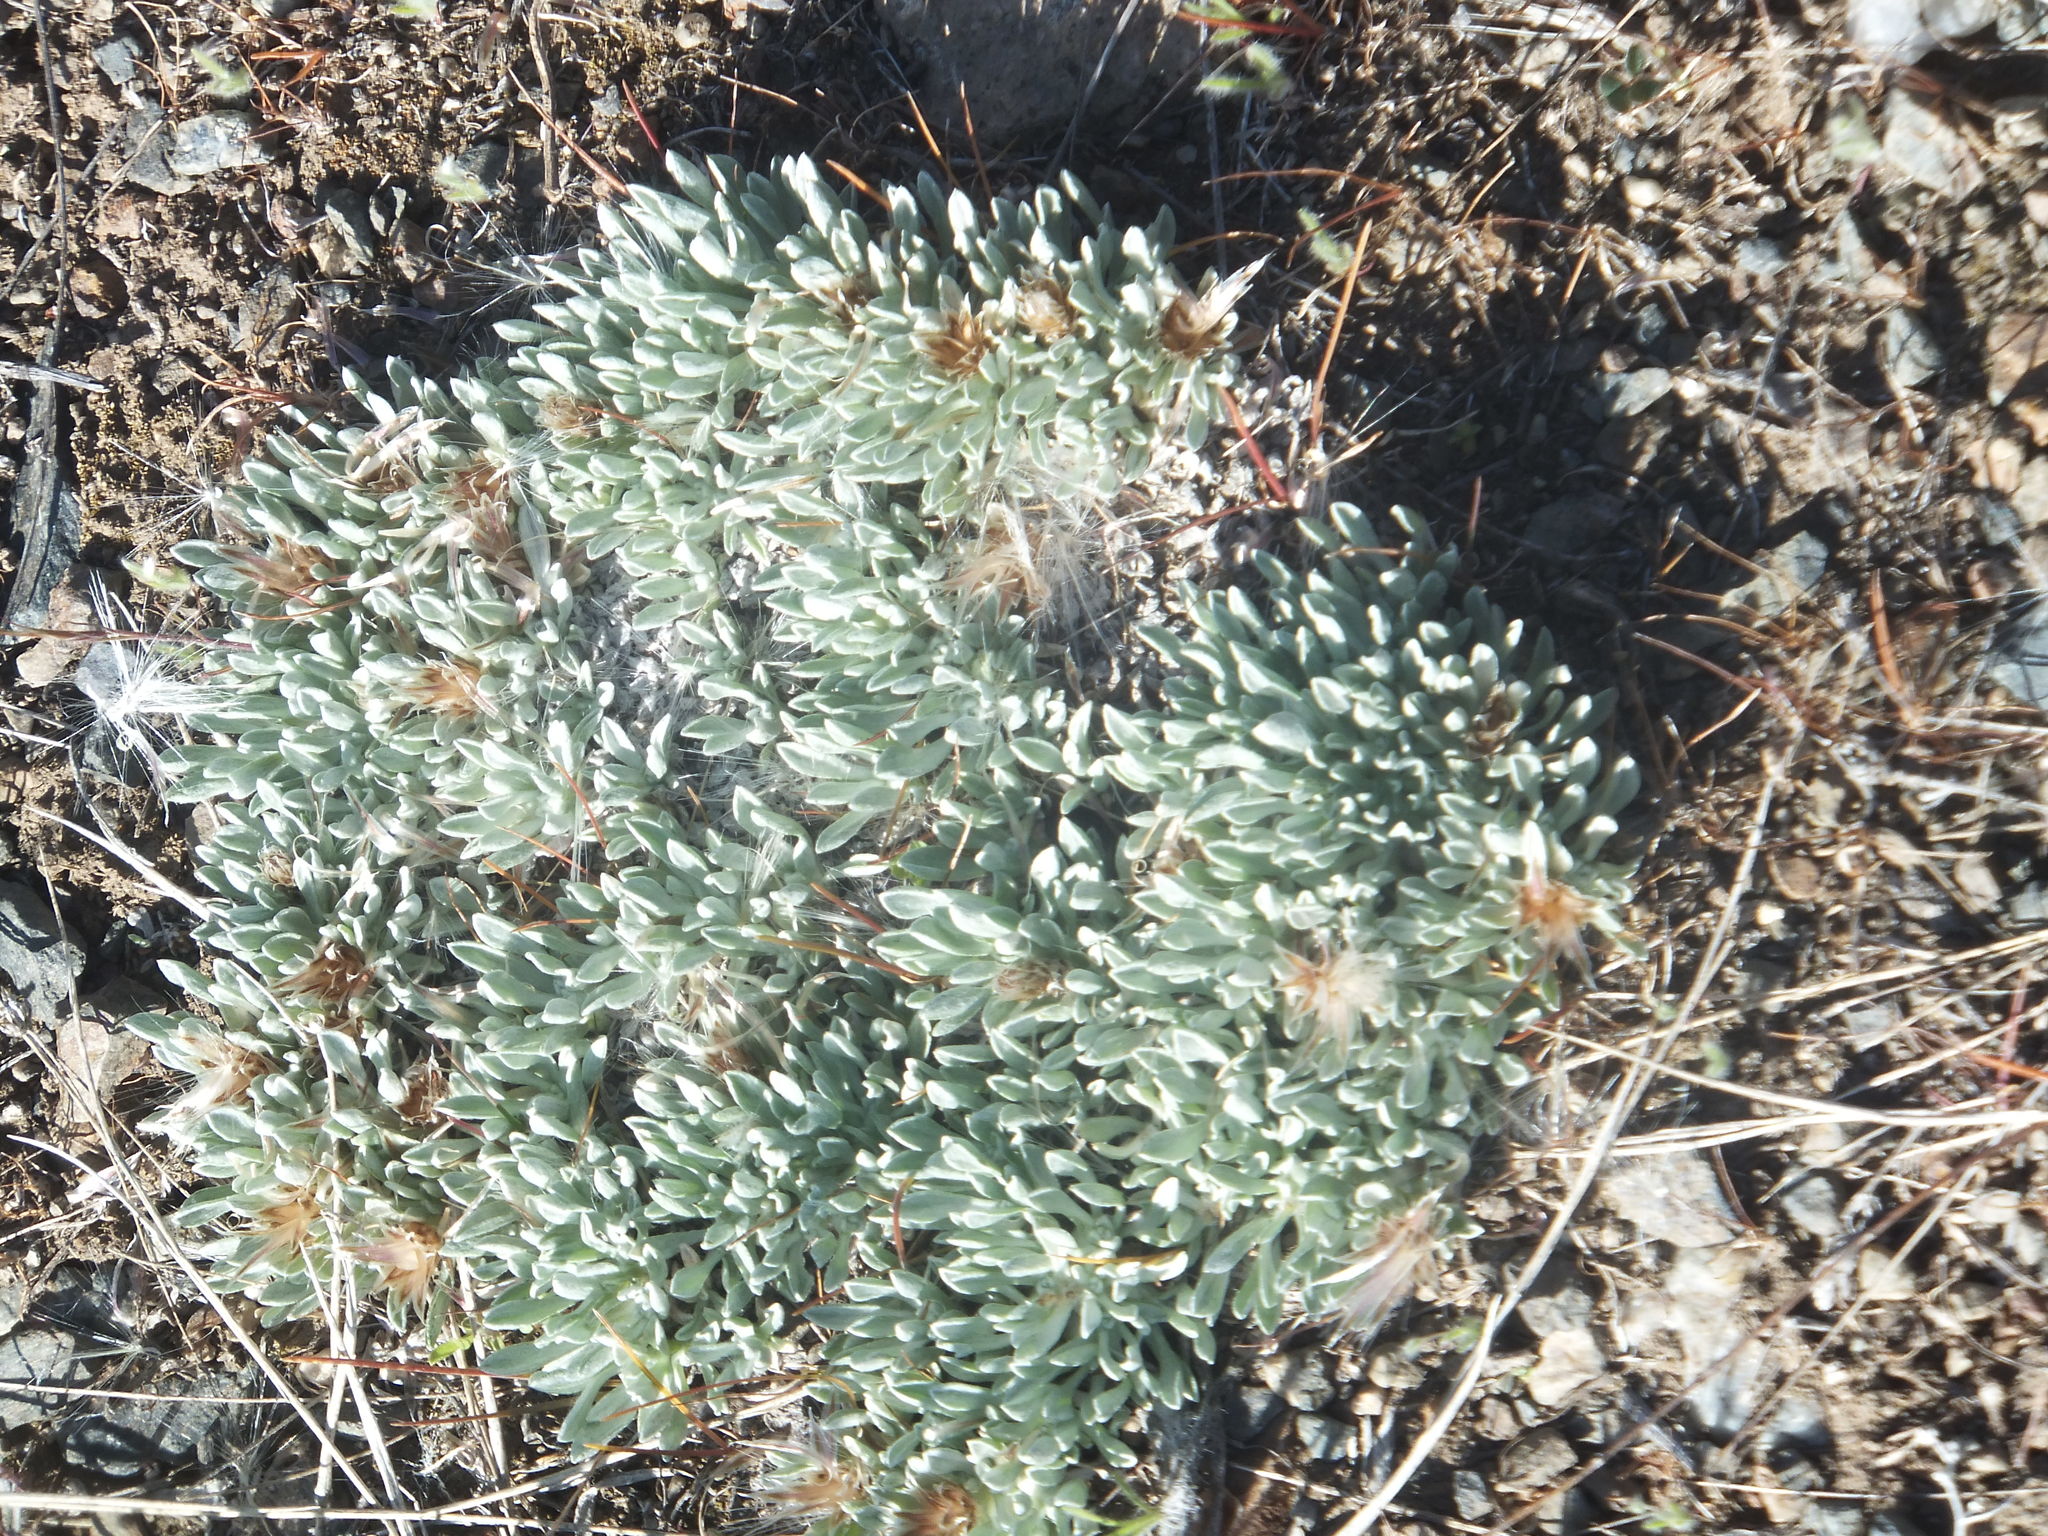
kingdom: Plantae
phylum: Tracheophyta
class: Magnoliopsida
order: Asterales
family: Asteraceae
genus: Antennaria
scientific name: Antennaria dimorpha
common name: Cushion pussytoes
